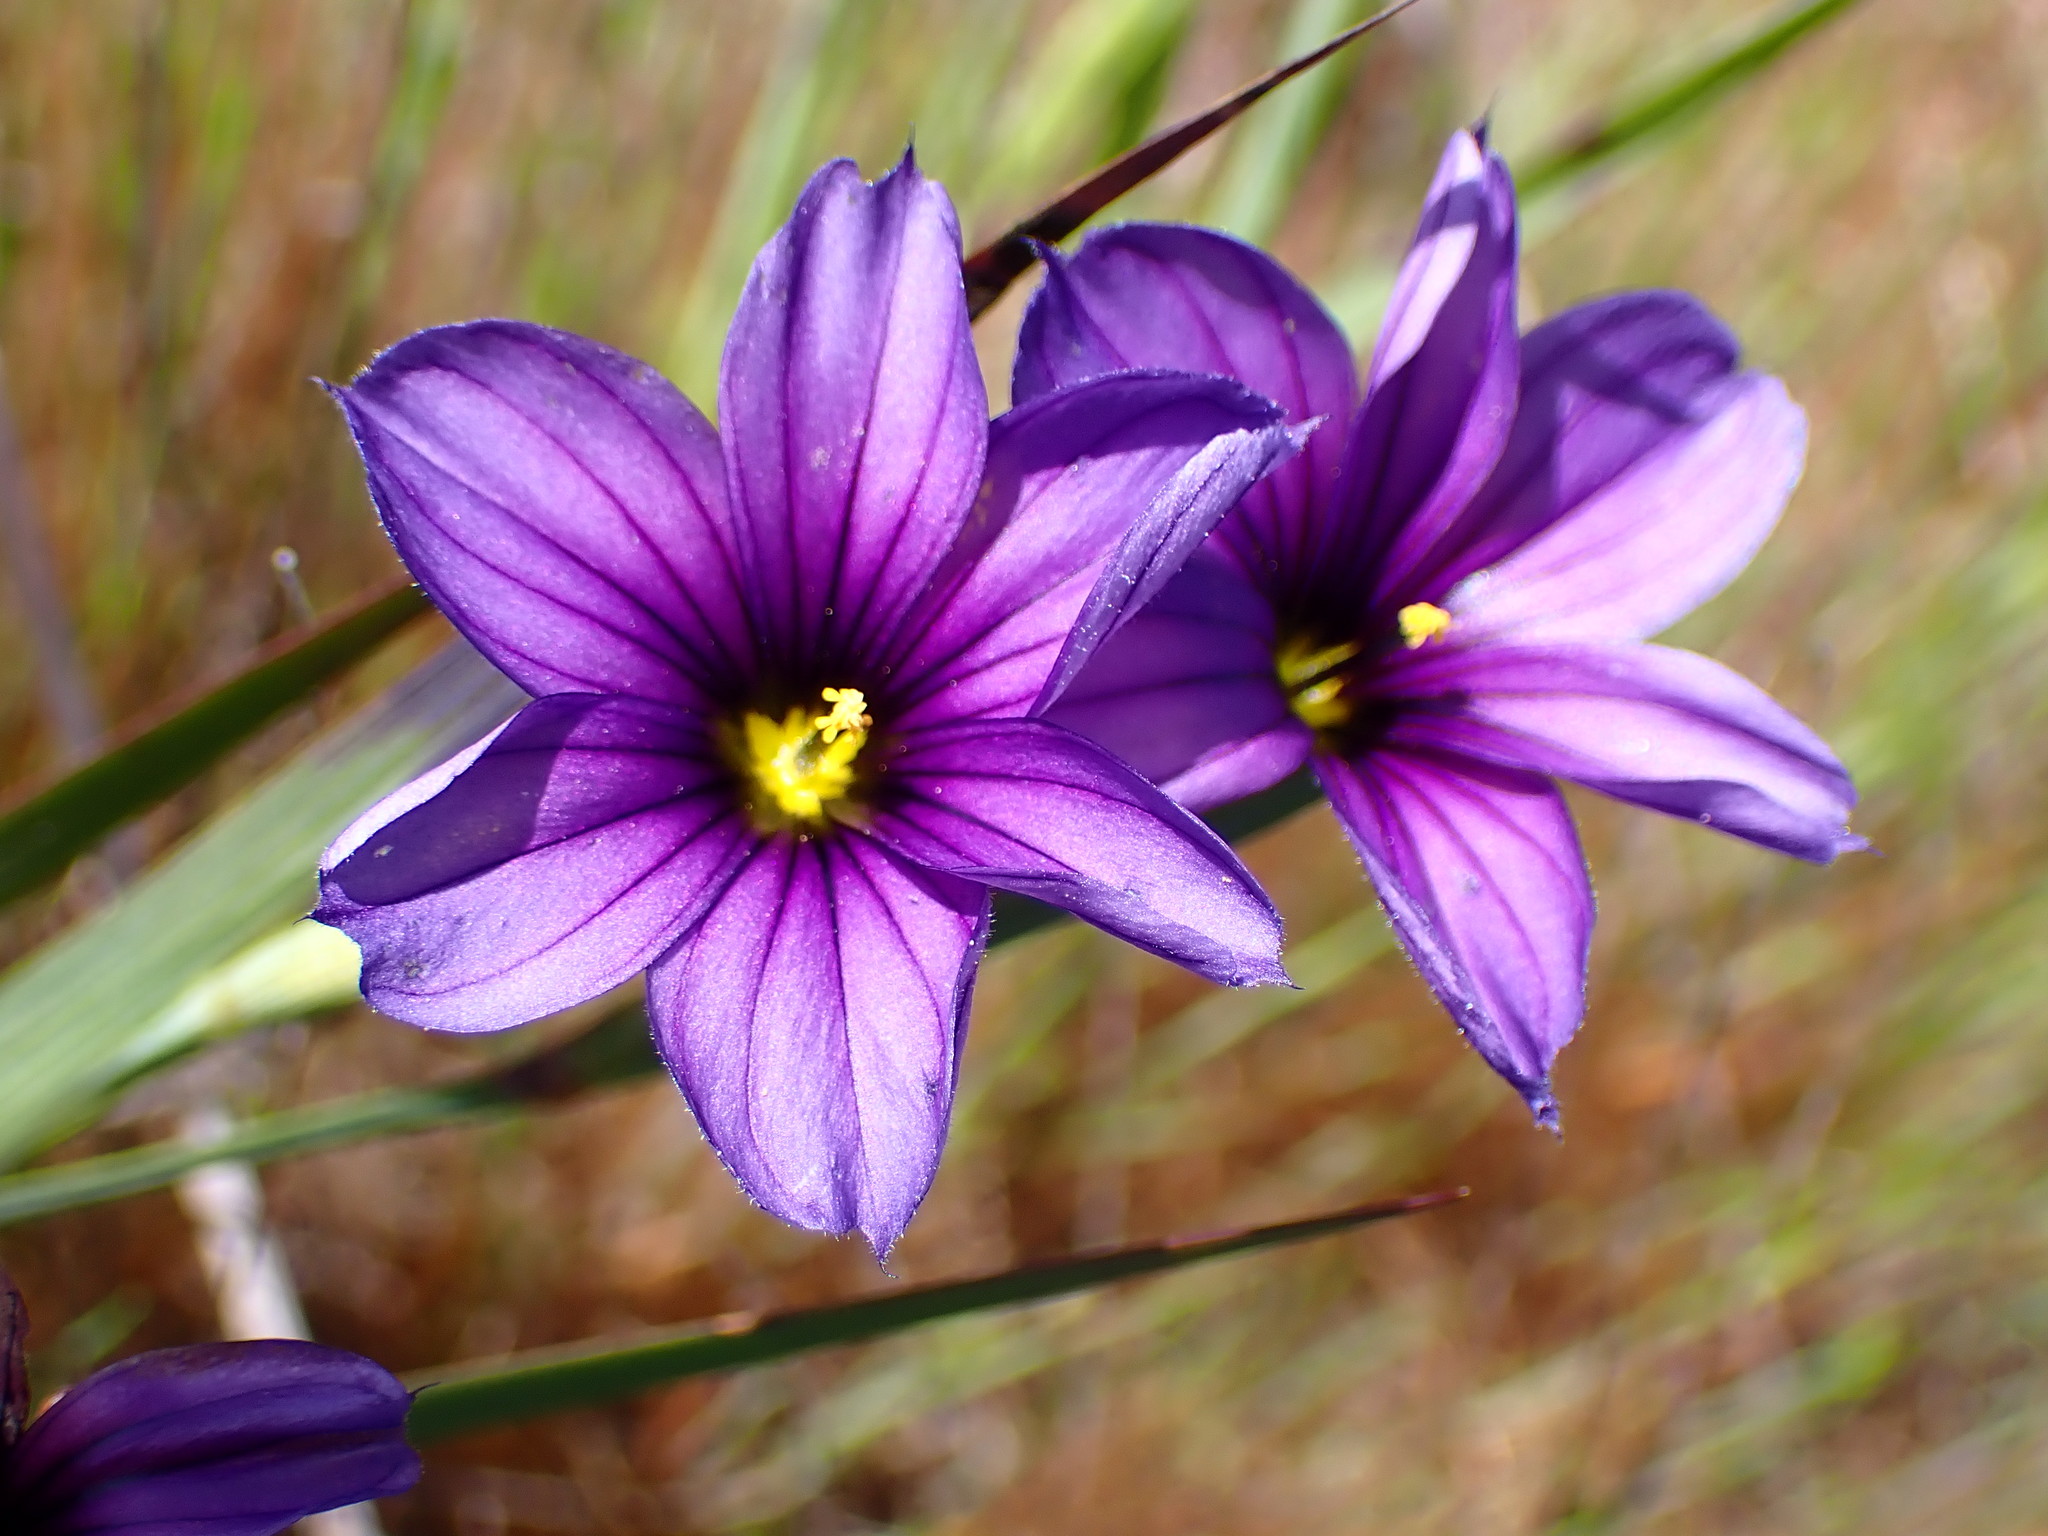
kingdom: Plantae
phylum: Tracheophyta
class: Liliopsida
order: Asparagales
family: Iridaceae
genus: Sisyrinchium
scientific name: Sisyrinchium bellum
